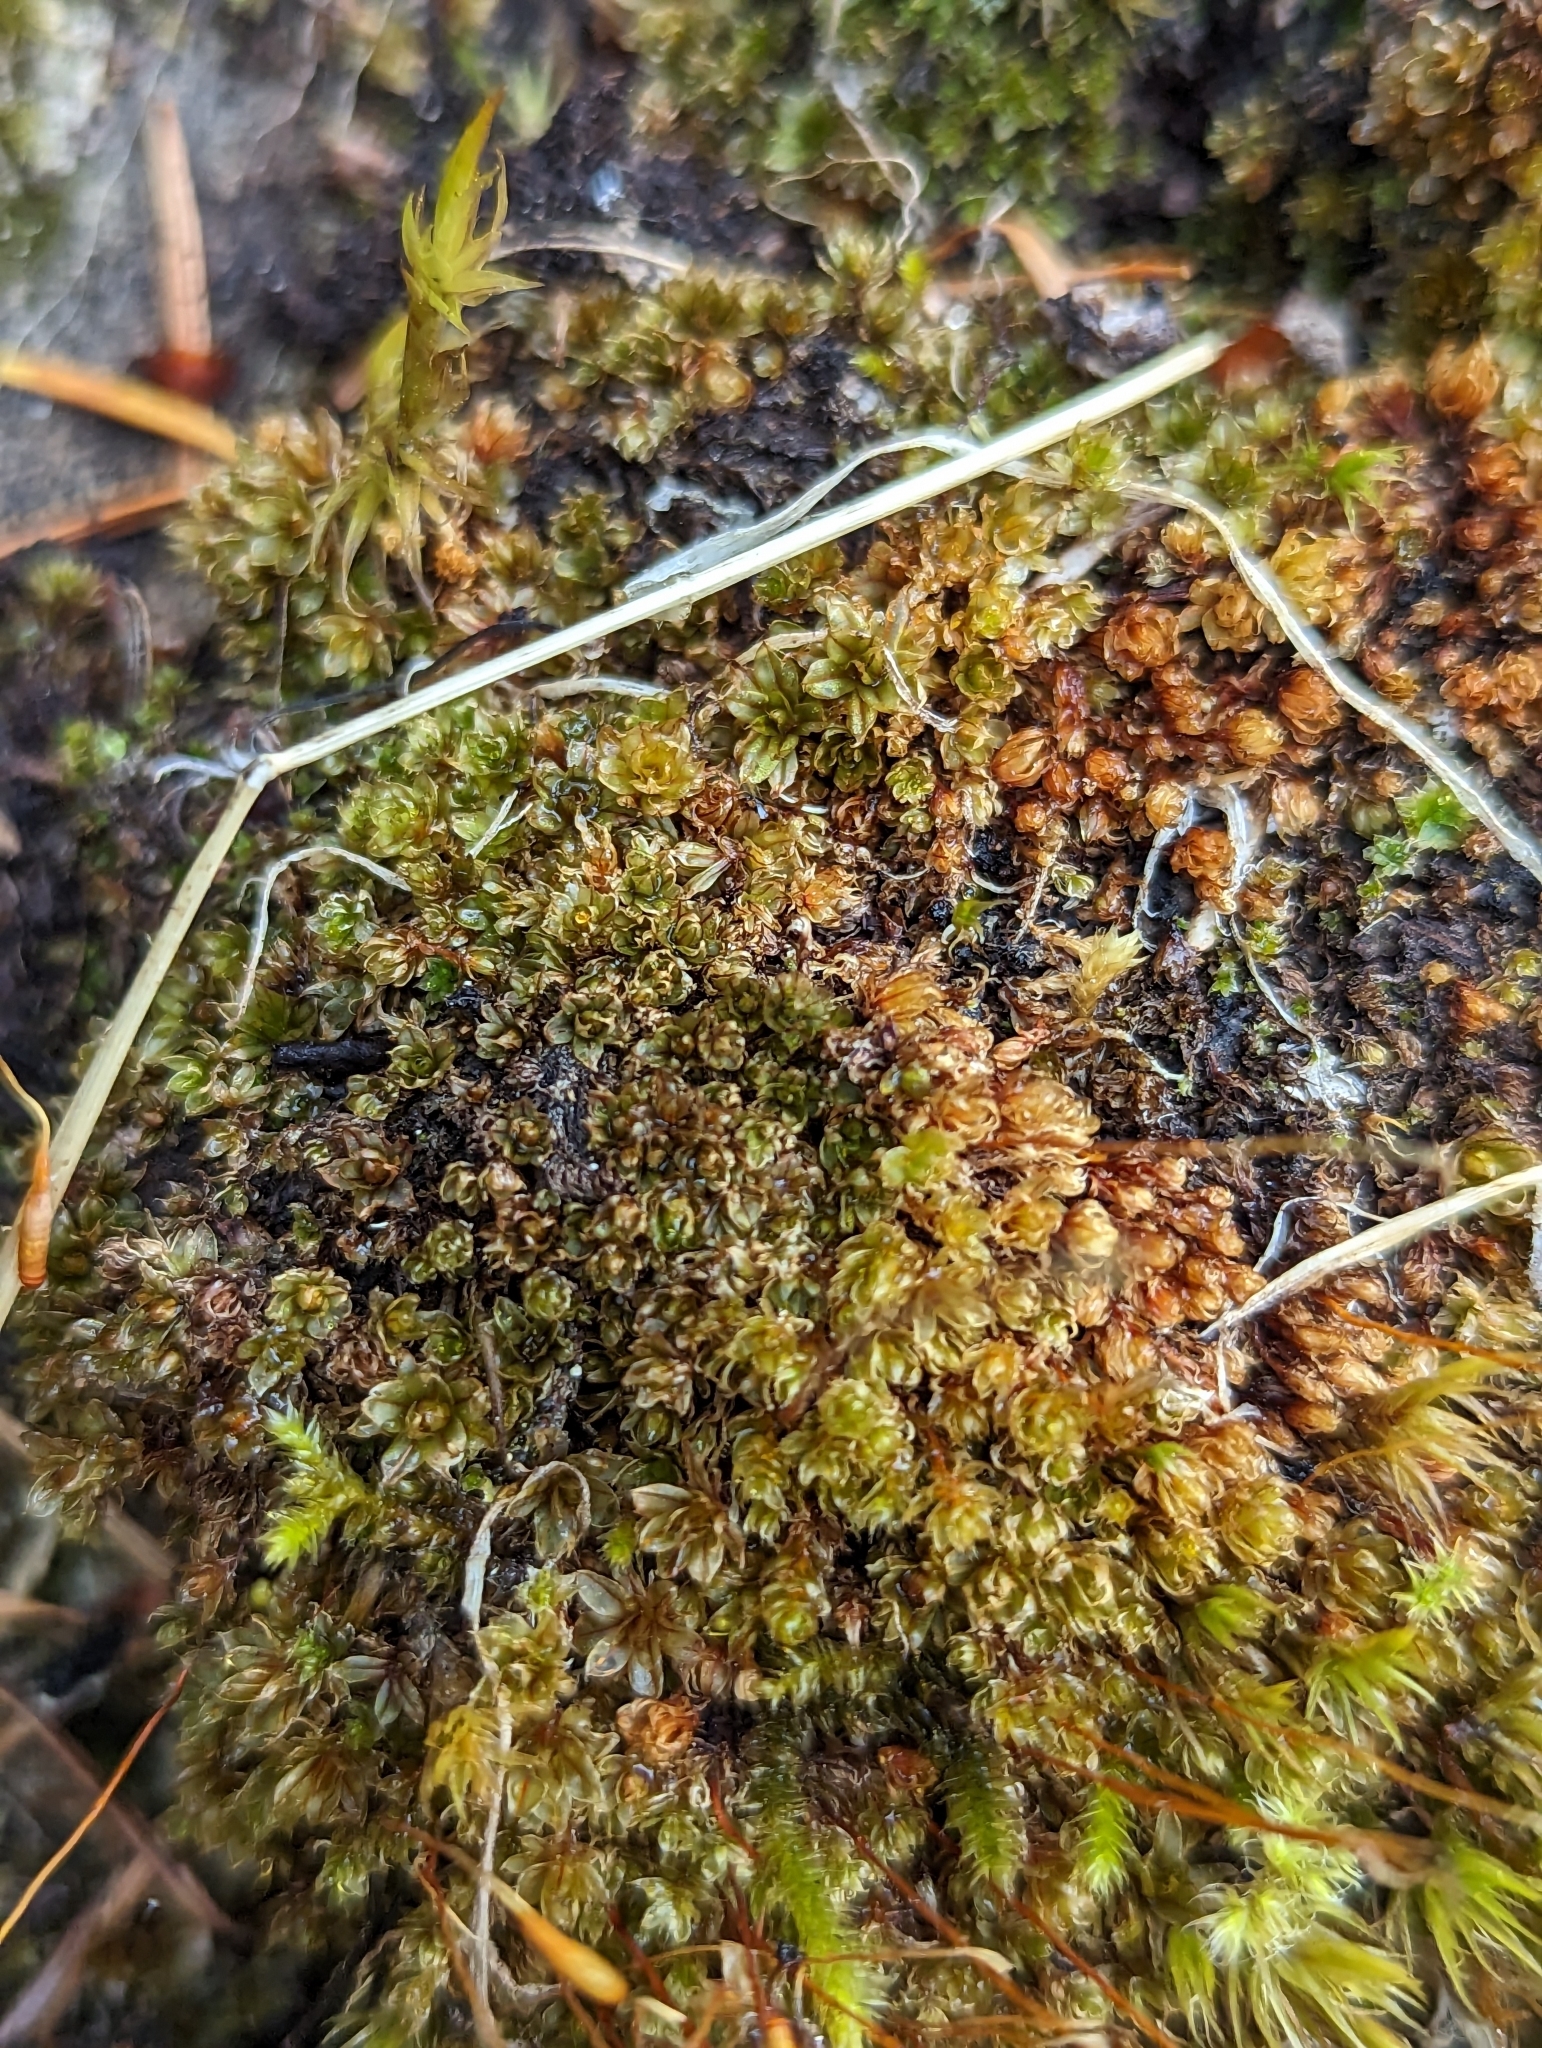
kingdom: Plantae
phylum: Bryophyta
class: Bryopsida
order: Bryales
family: Bryaceae
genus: Rosulabryum
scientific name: Rosulabryum capillare
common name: Capillary thread-moss
